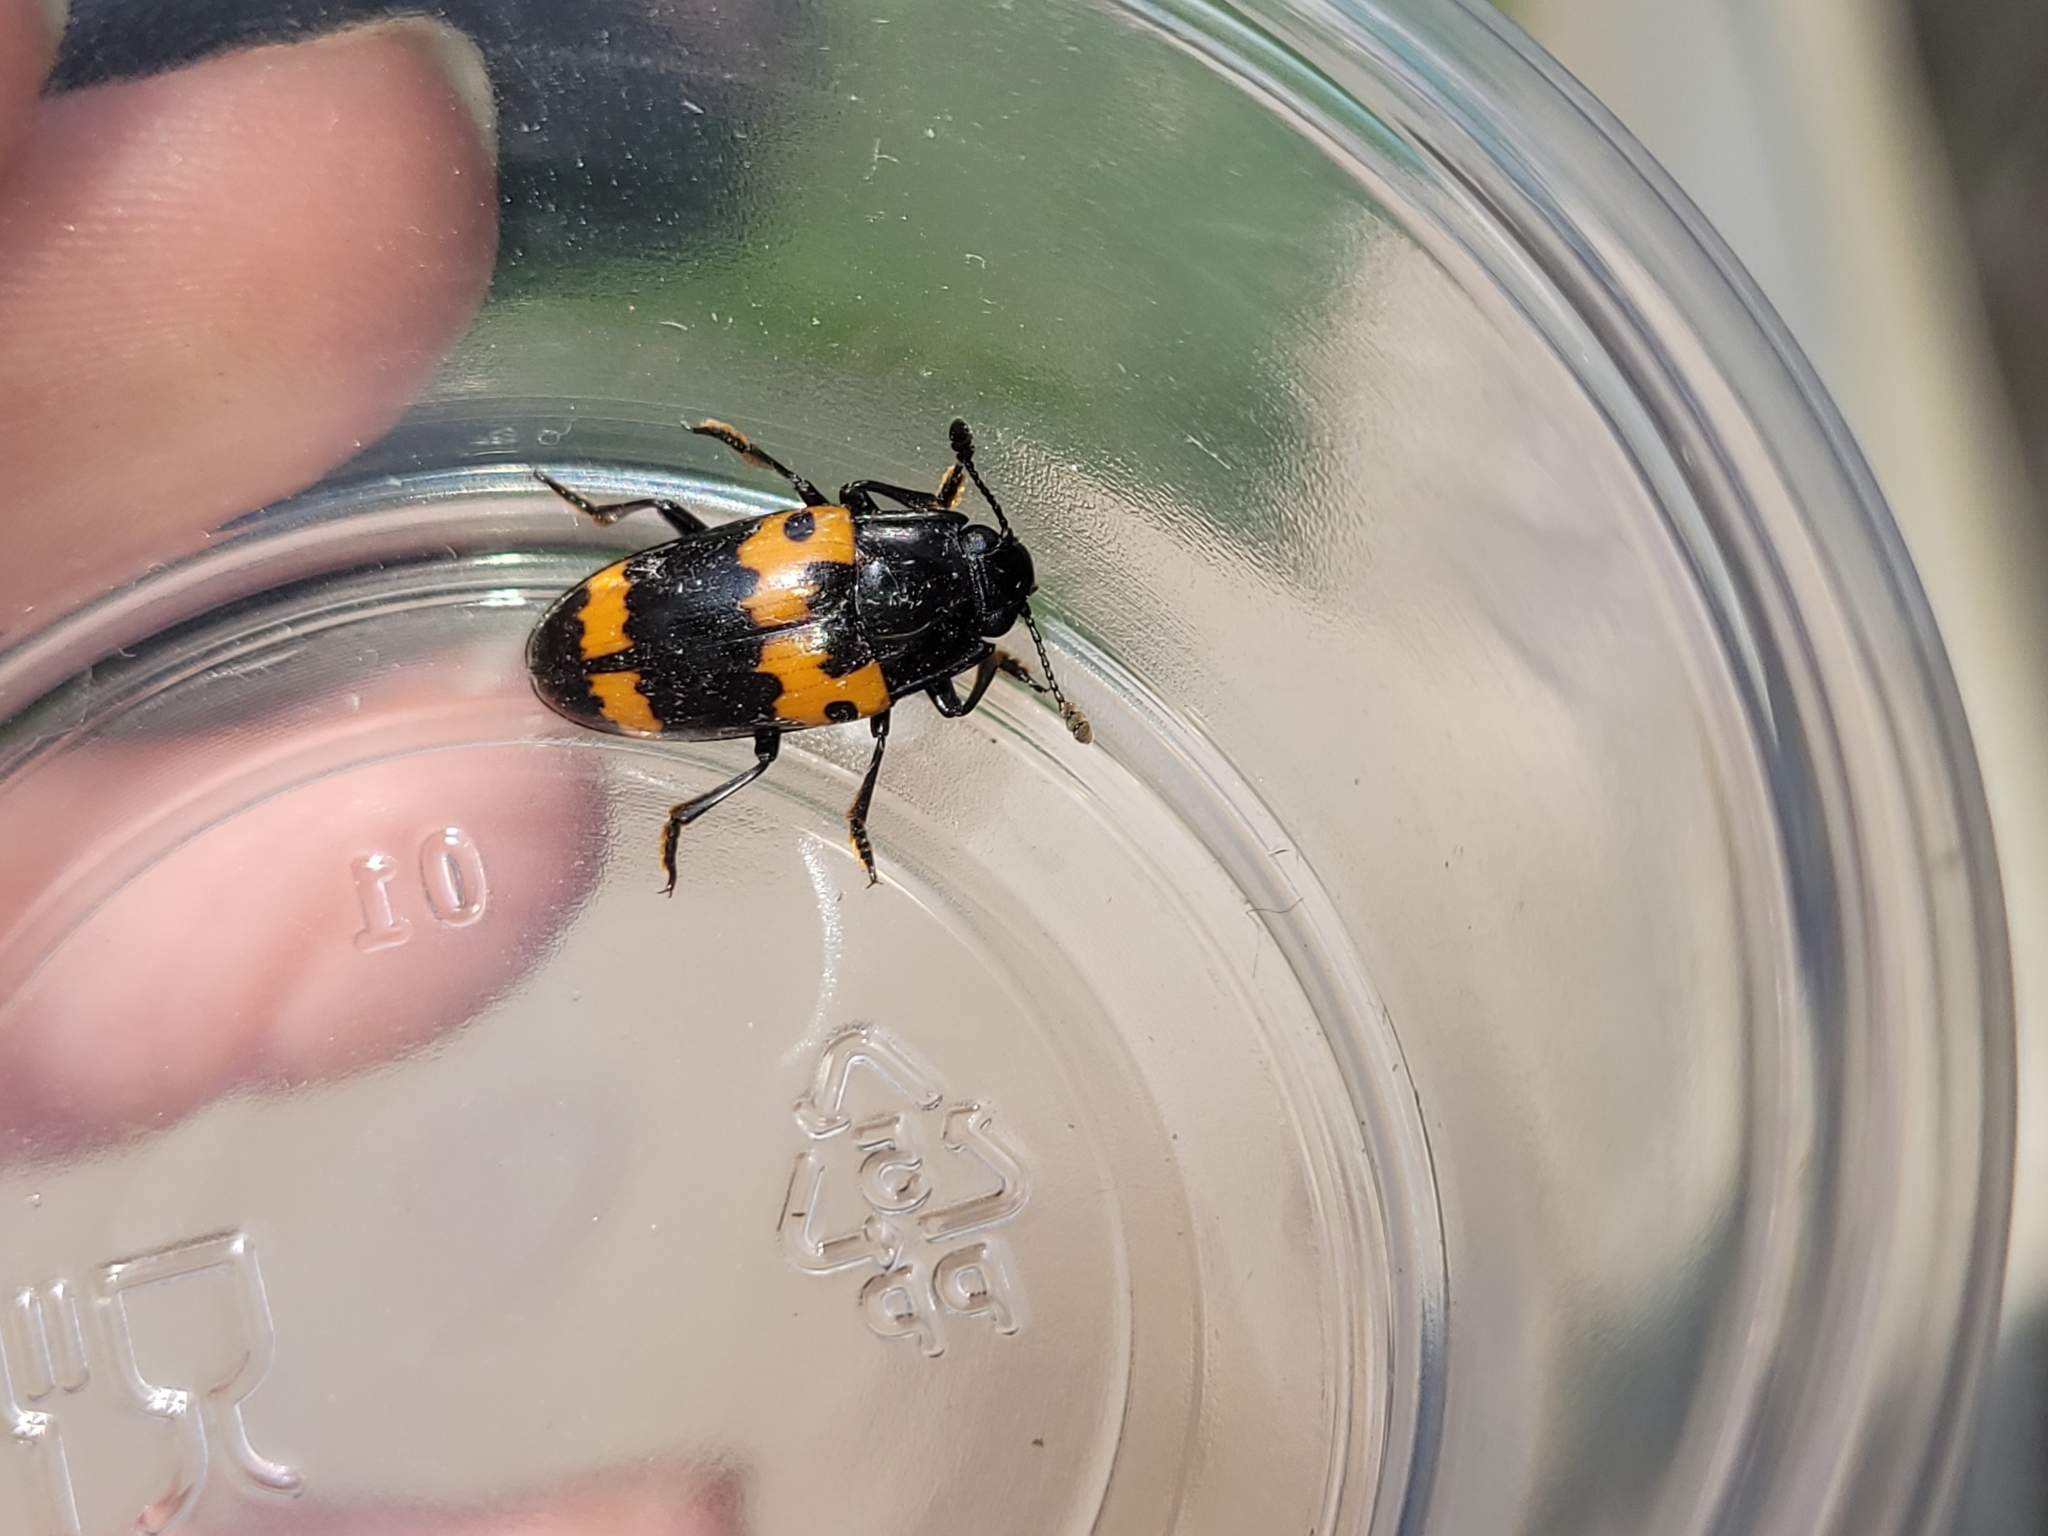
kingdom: Animalia
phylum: Arthropoda
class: Insecta
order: Coleoptera
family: Erotylidae
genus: Megalodacne
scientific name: Megalodacne fasciata
